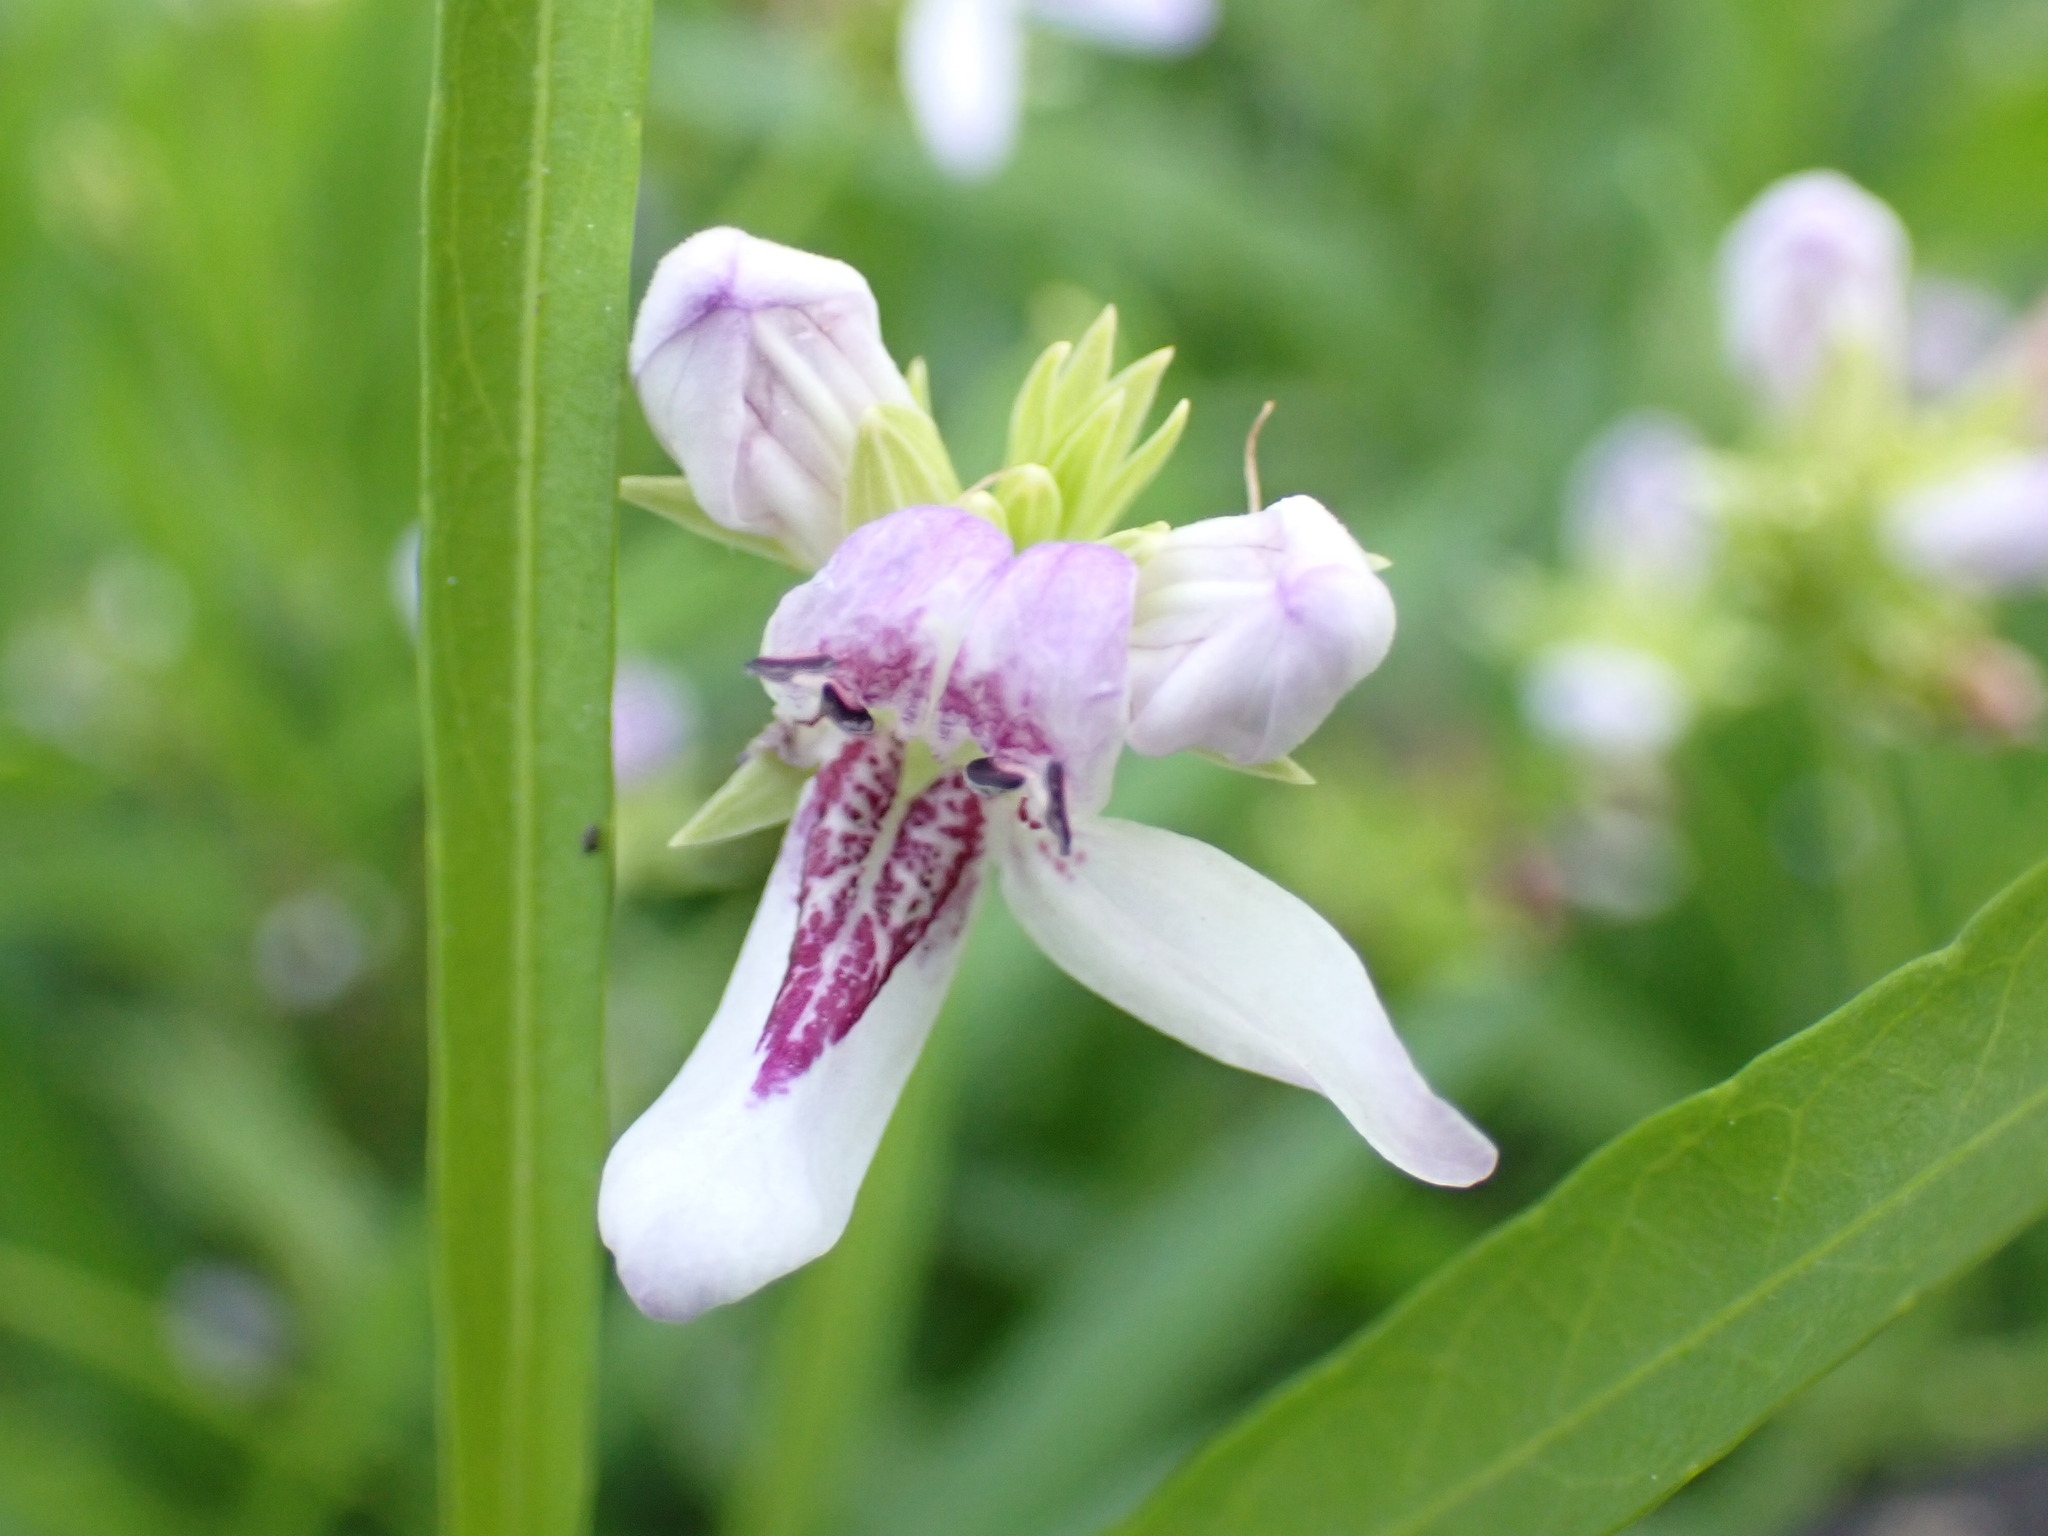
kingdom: Plantae
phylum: Tracheophyta
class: Magnoliopsida
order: Lamiales
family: Acanthaceae
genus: Dianthera
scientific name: Dianthera americana
